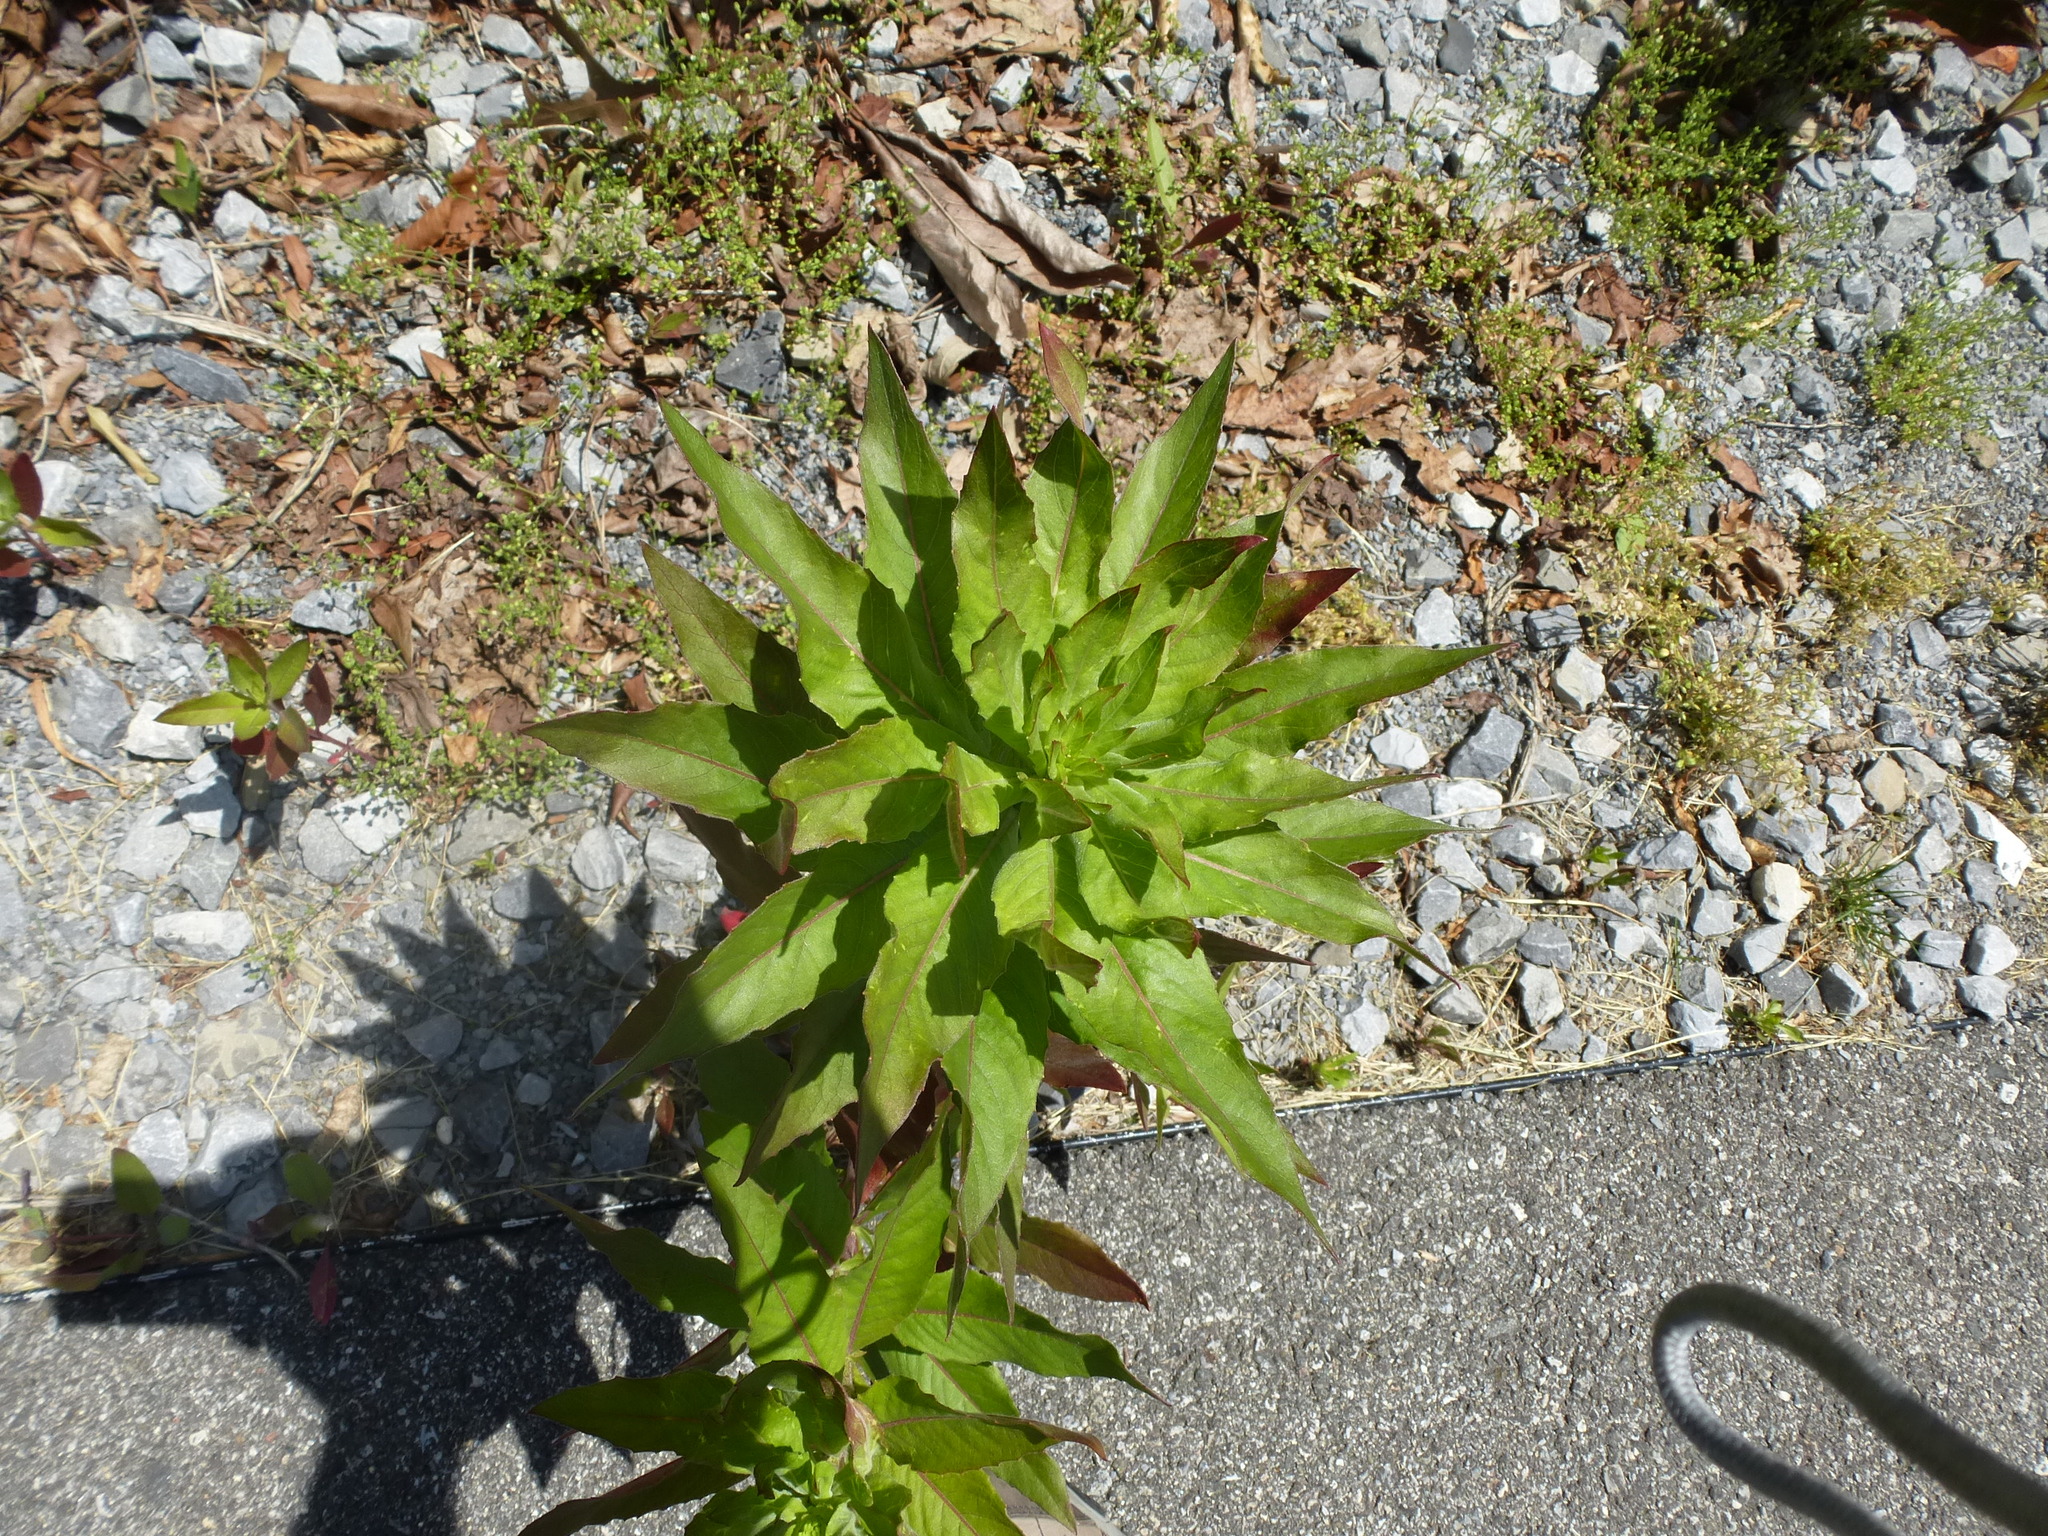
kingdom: Plantae
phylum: Tracheophyta
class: Magnoliopsida
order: Myrtales
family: Onagraceae
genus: Oenothera
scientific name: Oenothera biennis
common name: Common evening-primrose
